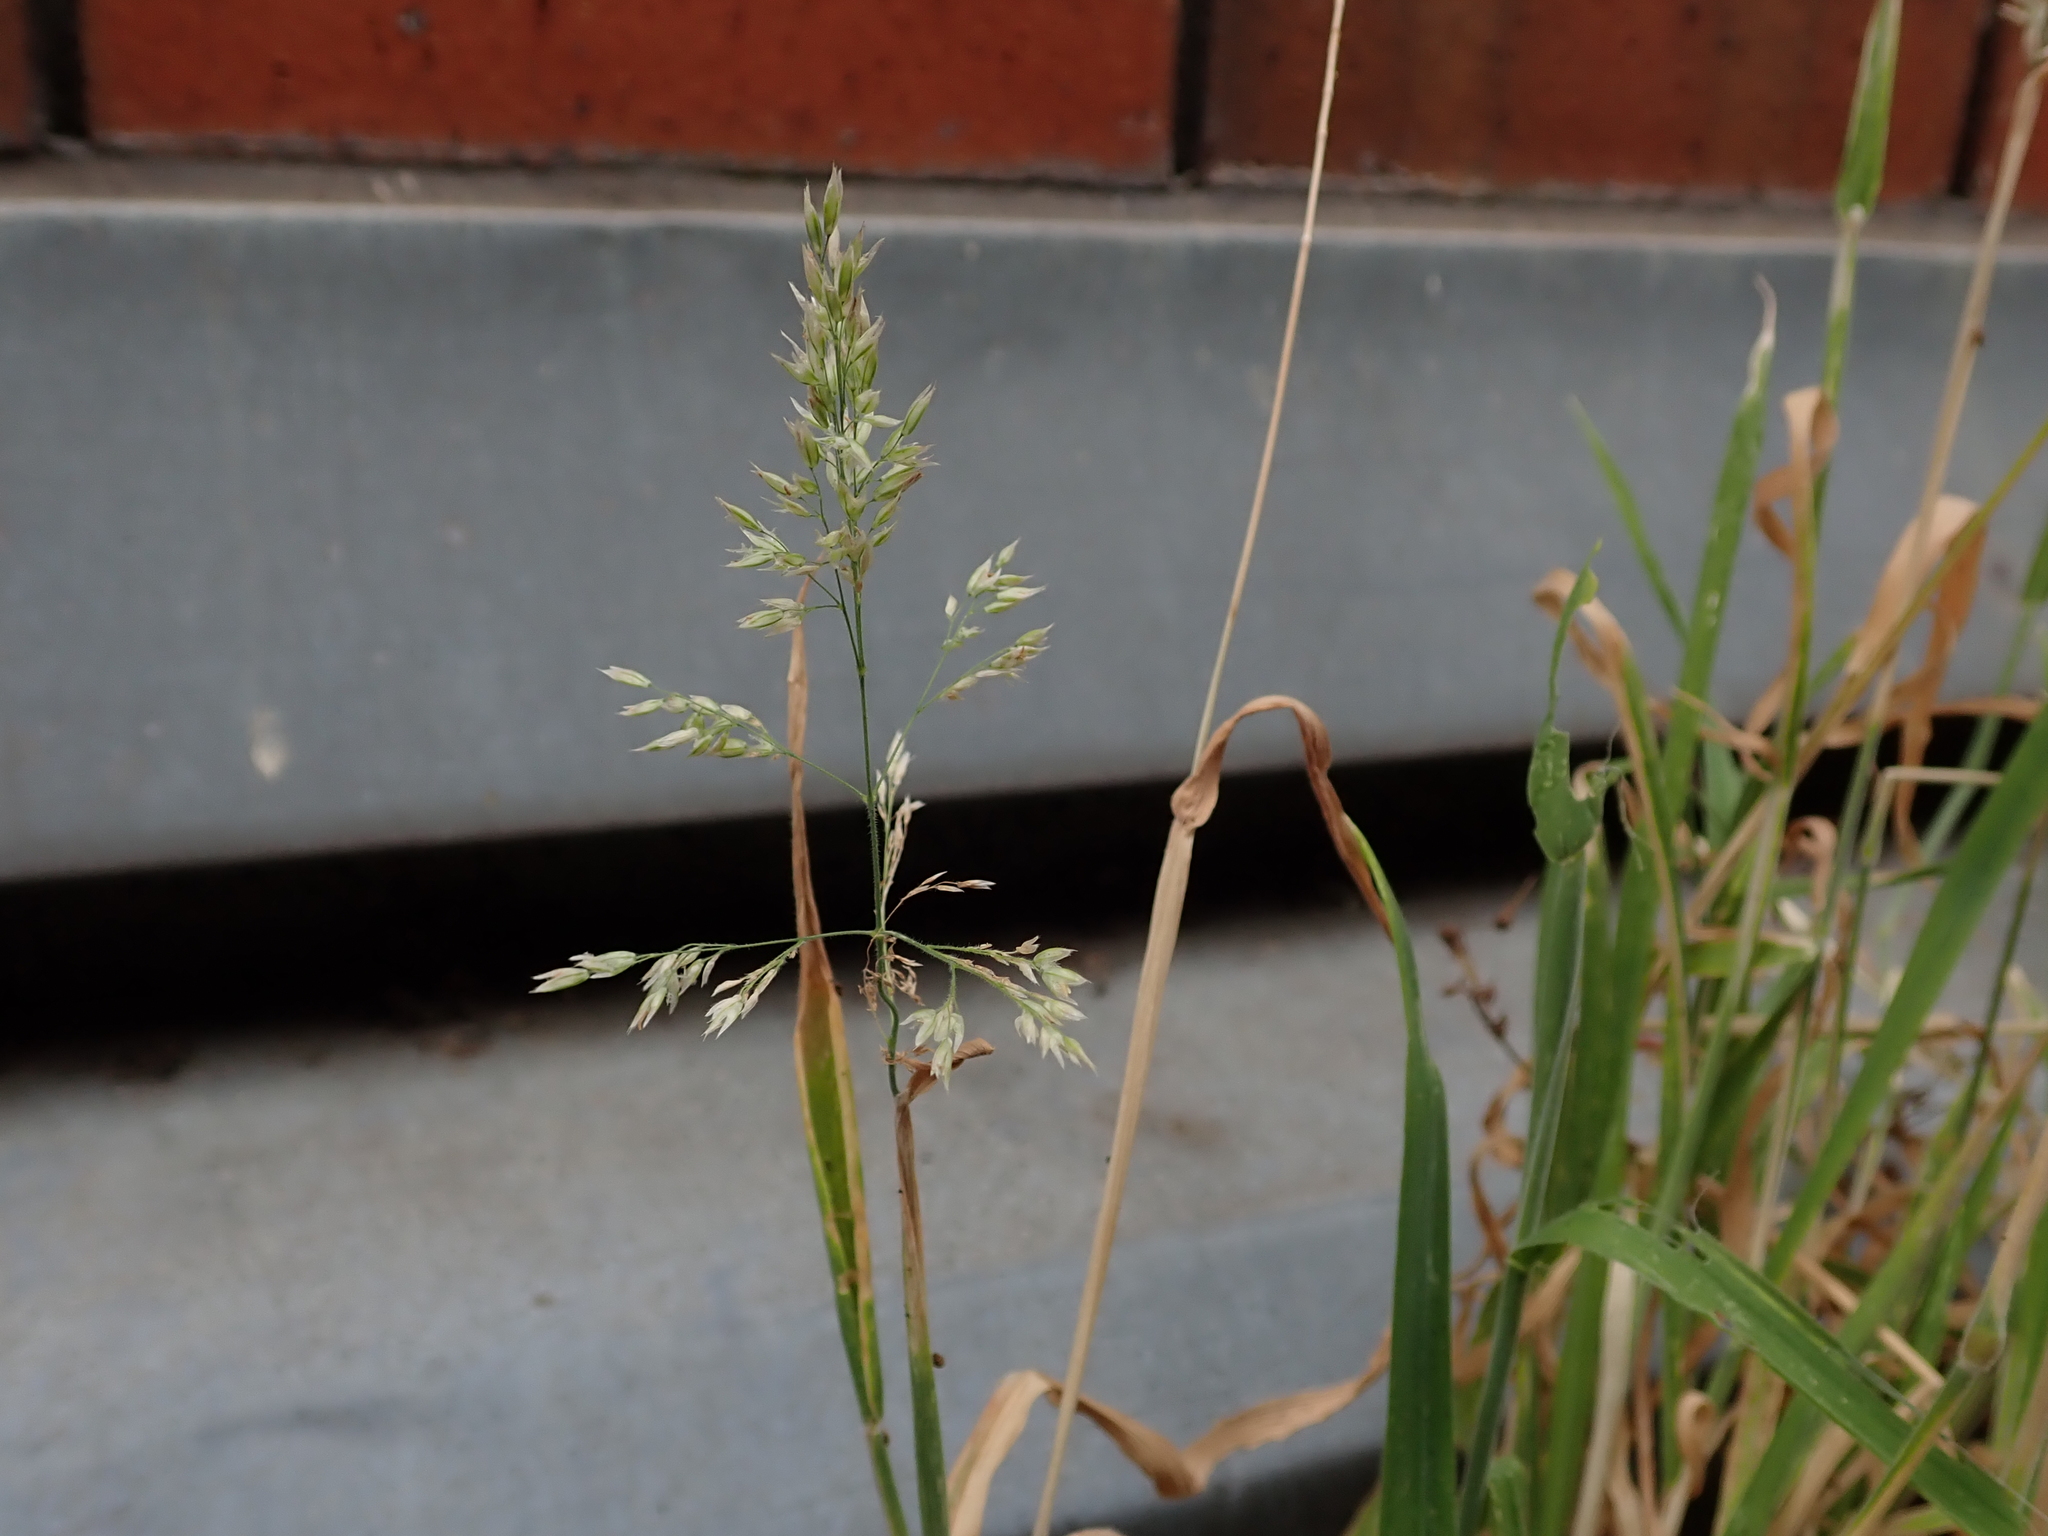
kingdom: Plantae
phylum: Tracheophyta
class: Liliopsida
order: Poales
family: Poaceae
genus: Holcus
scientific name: Holcus lanatus
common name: Yorkshire-fog
